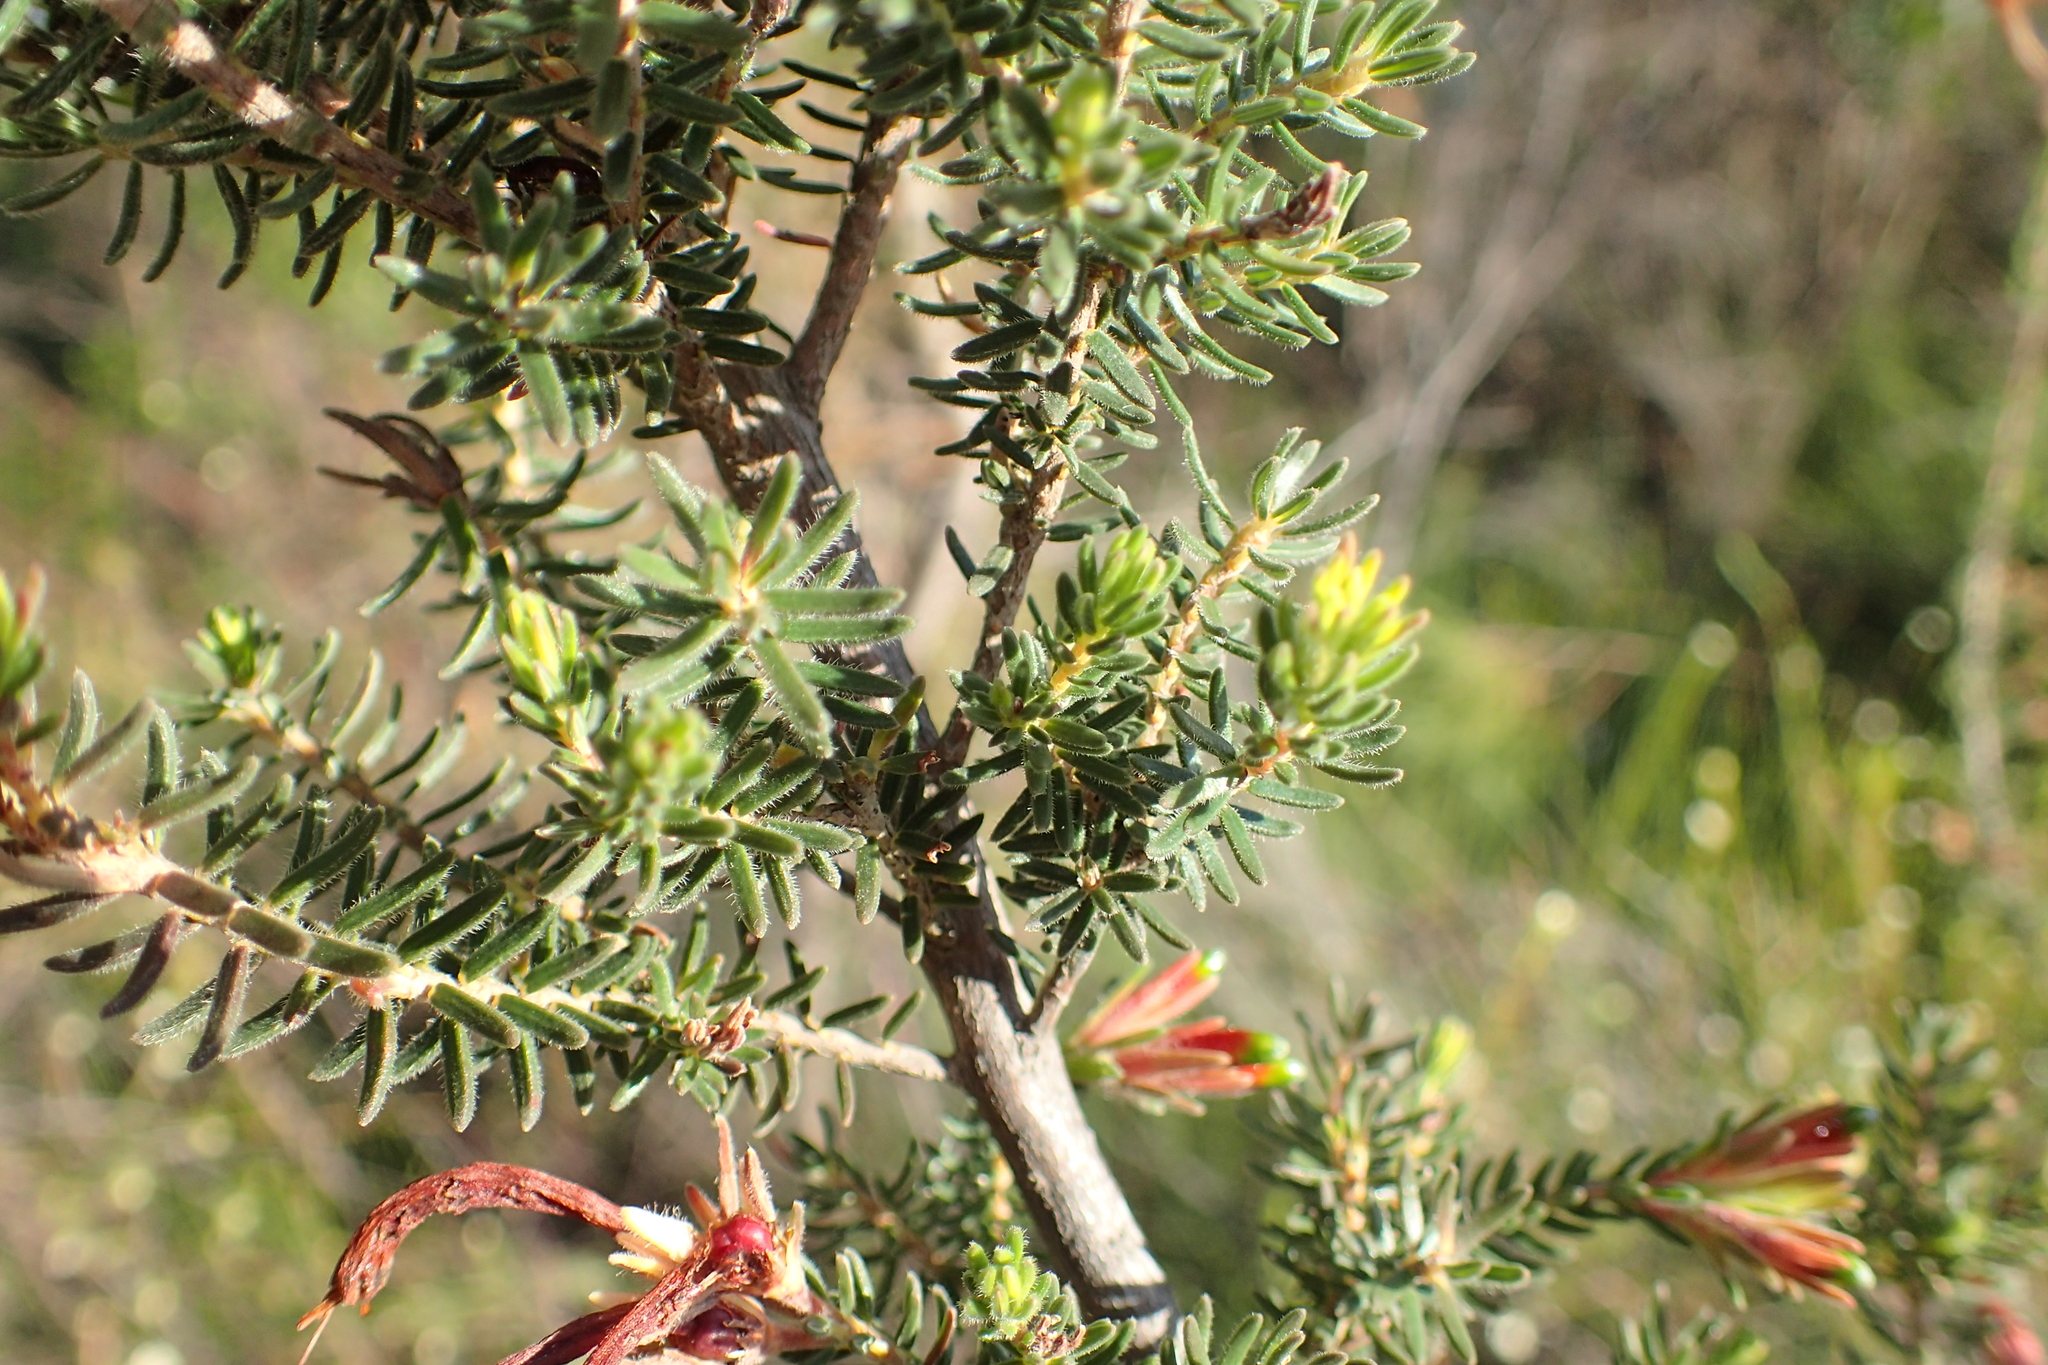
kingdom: Plantae
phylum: Tracheophyta
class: Magnoliopsida
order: Ericales
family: Ericaceae
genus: Erica
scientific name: Erica discolor
